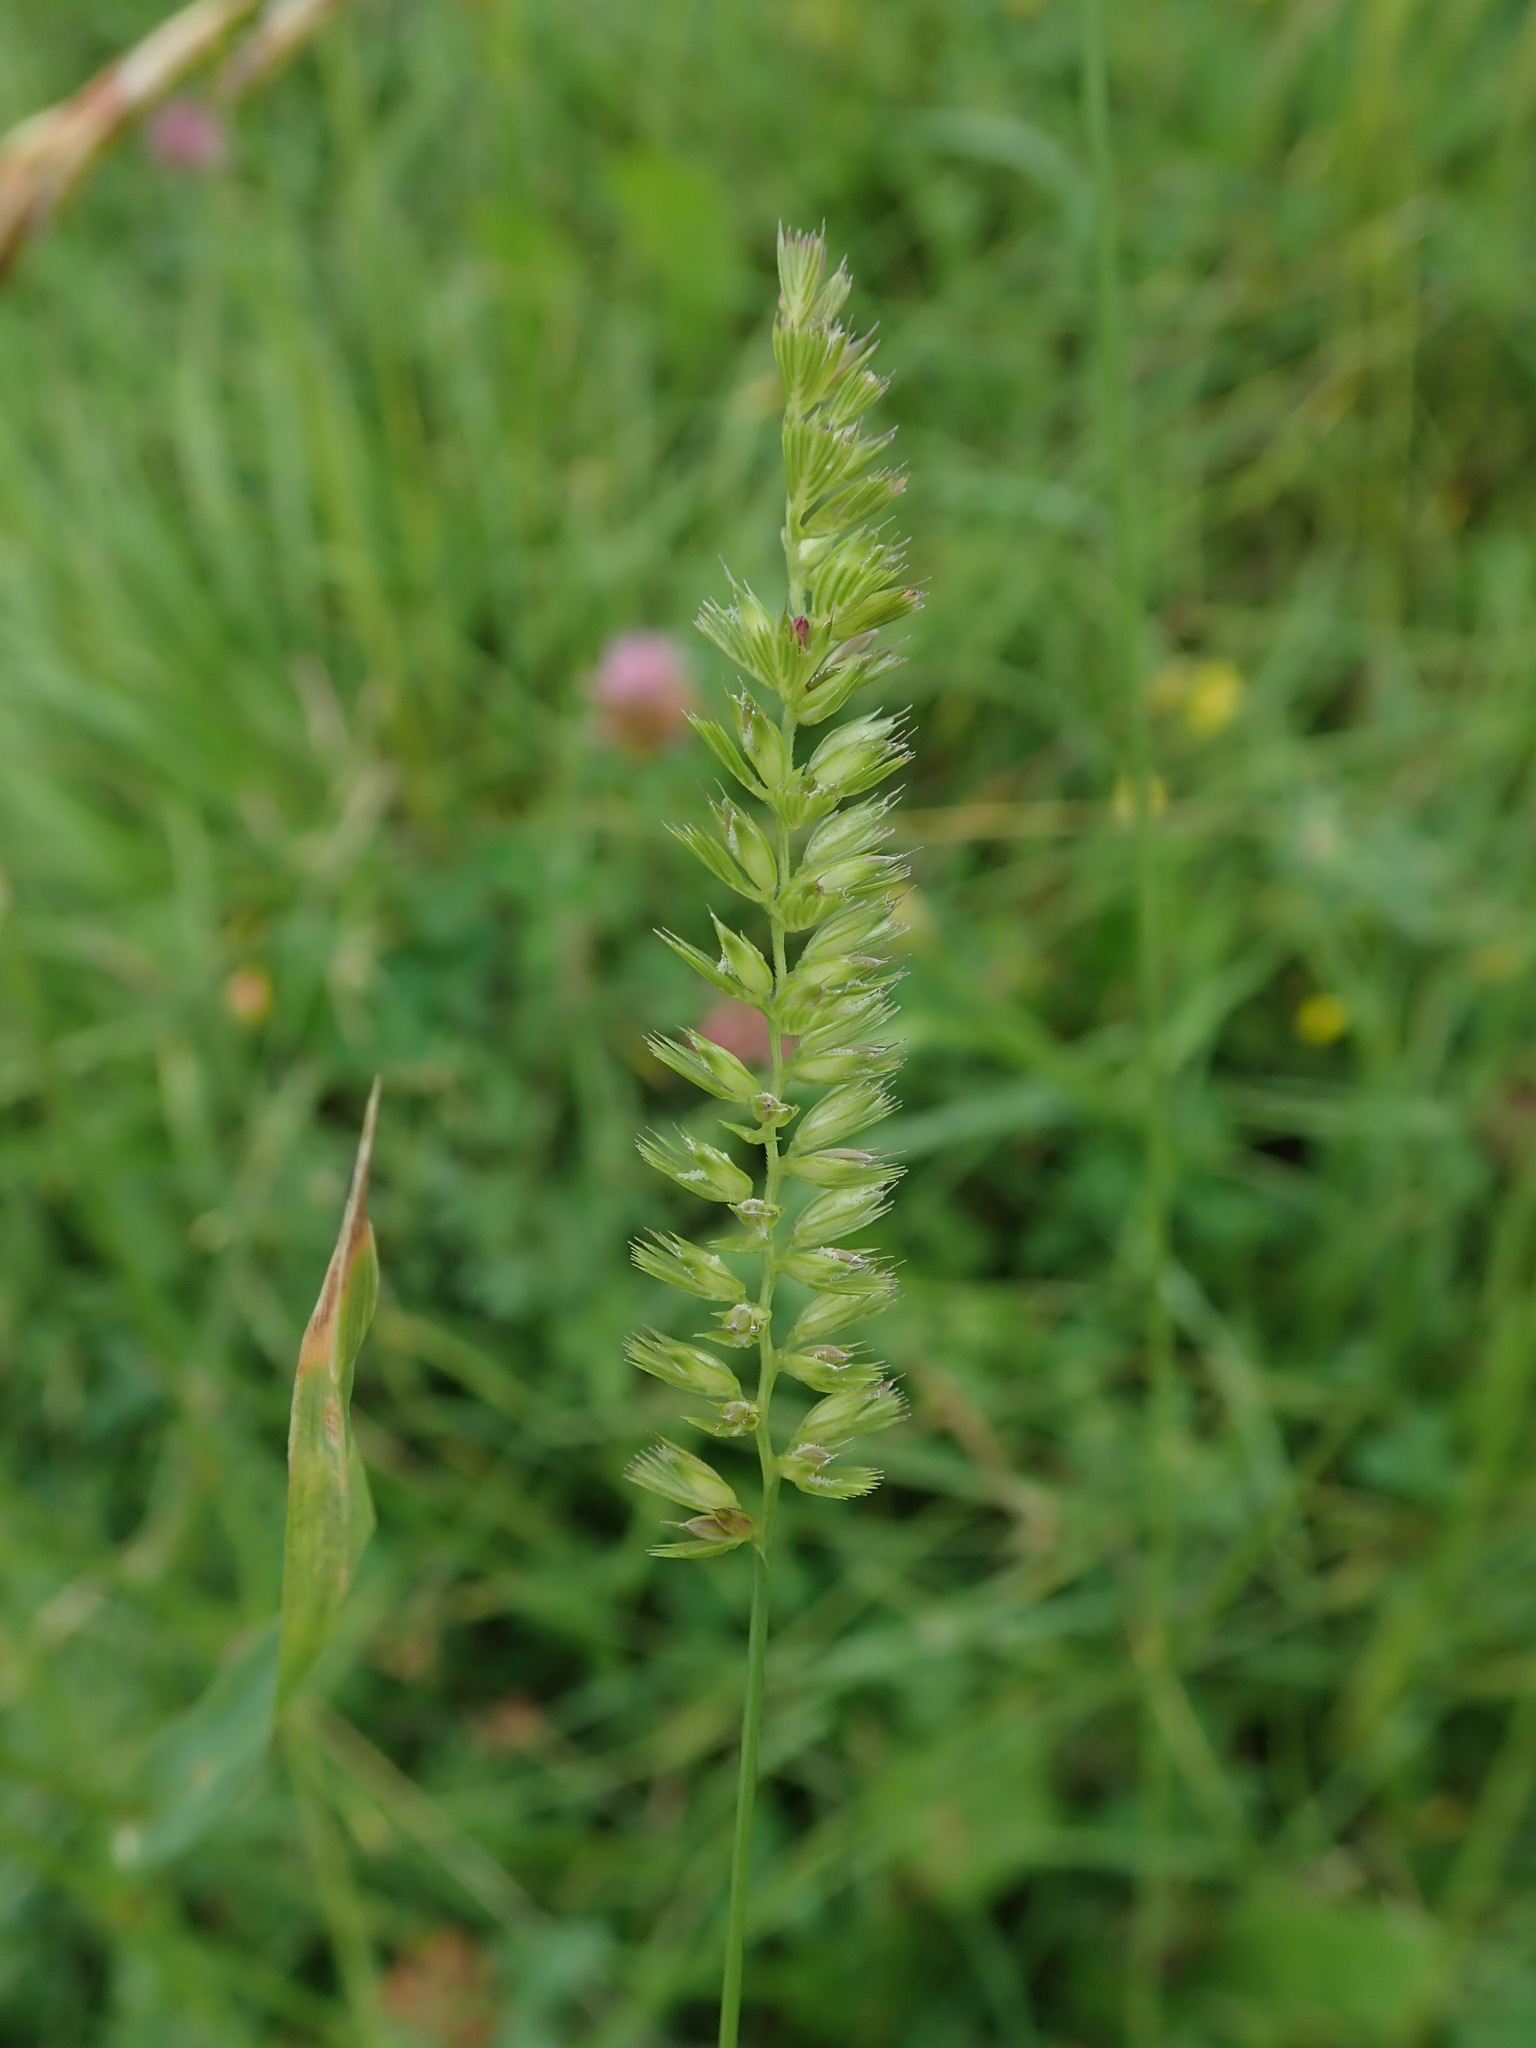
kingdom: Plantae
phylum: Tracheophyta
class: Liliopsida
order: Poales
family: Poaceae
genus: Cynosurus
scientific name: Cynosurus cristatus
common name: Crested dog's-tail
